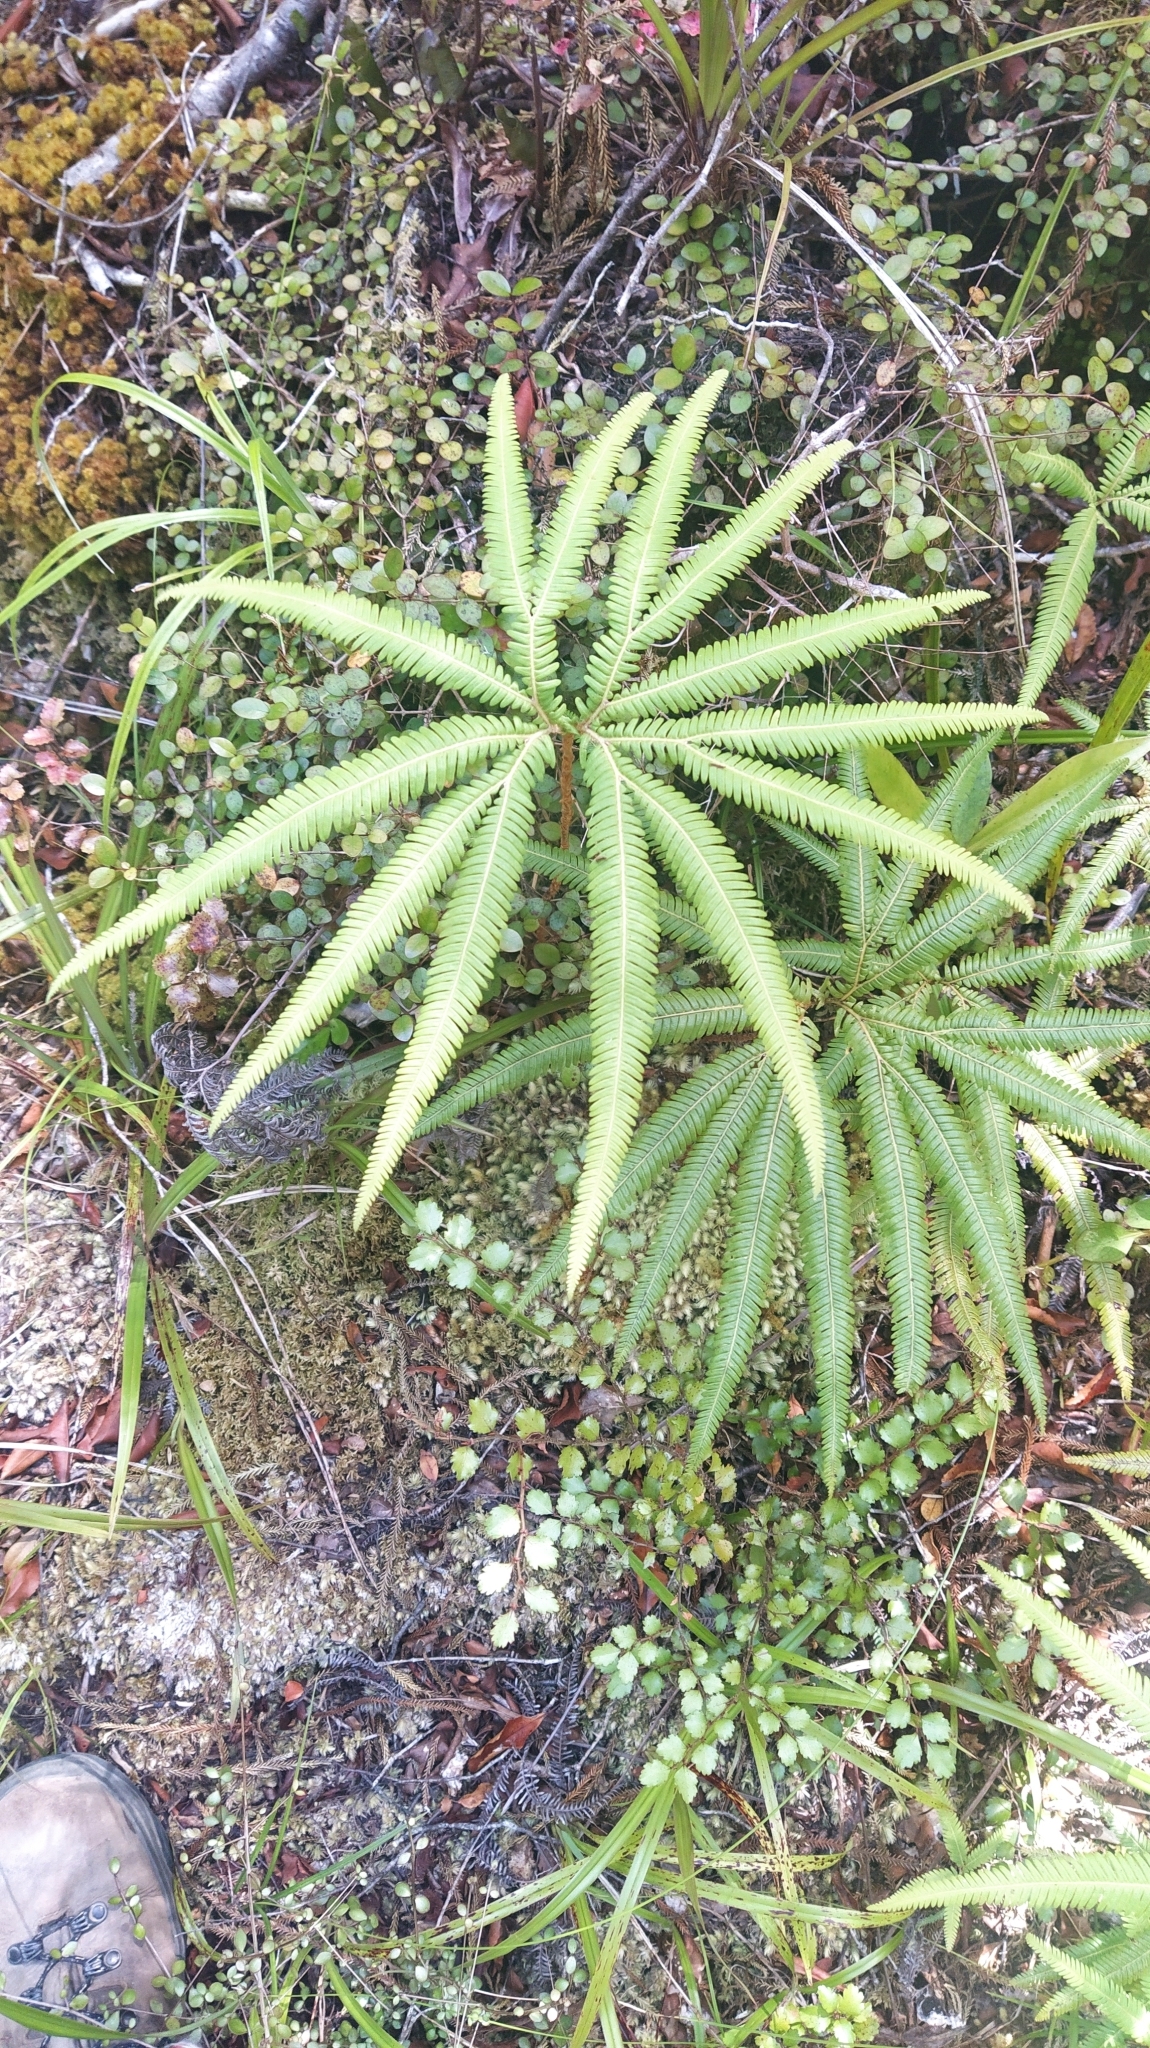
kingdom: Plantae
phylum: Tracheophyta
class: Polypodiopsida
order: Gleicheniales
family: Gleicheniaceae
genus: Sticherus
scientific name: Sticherus cunninghamii
